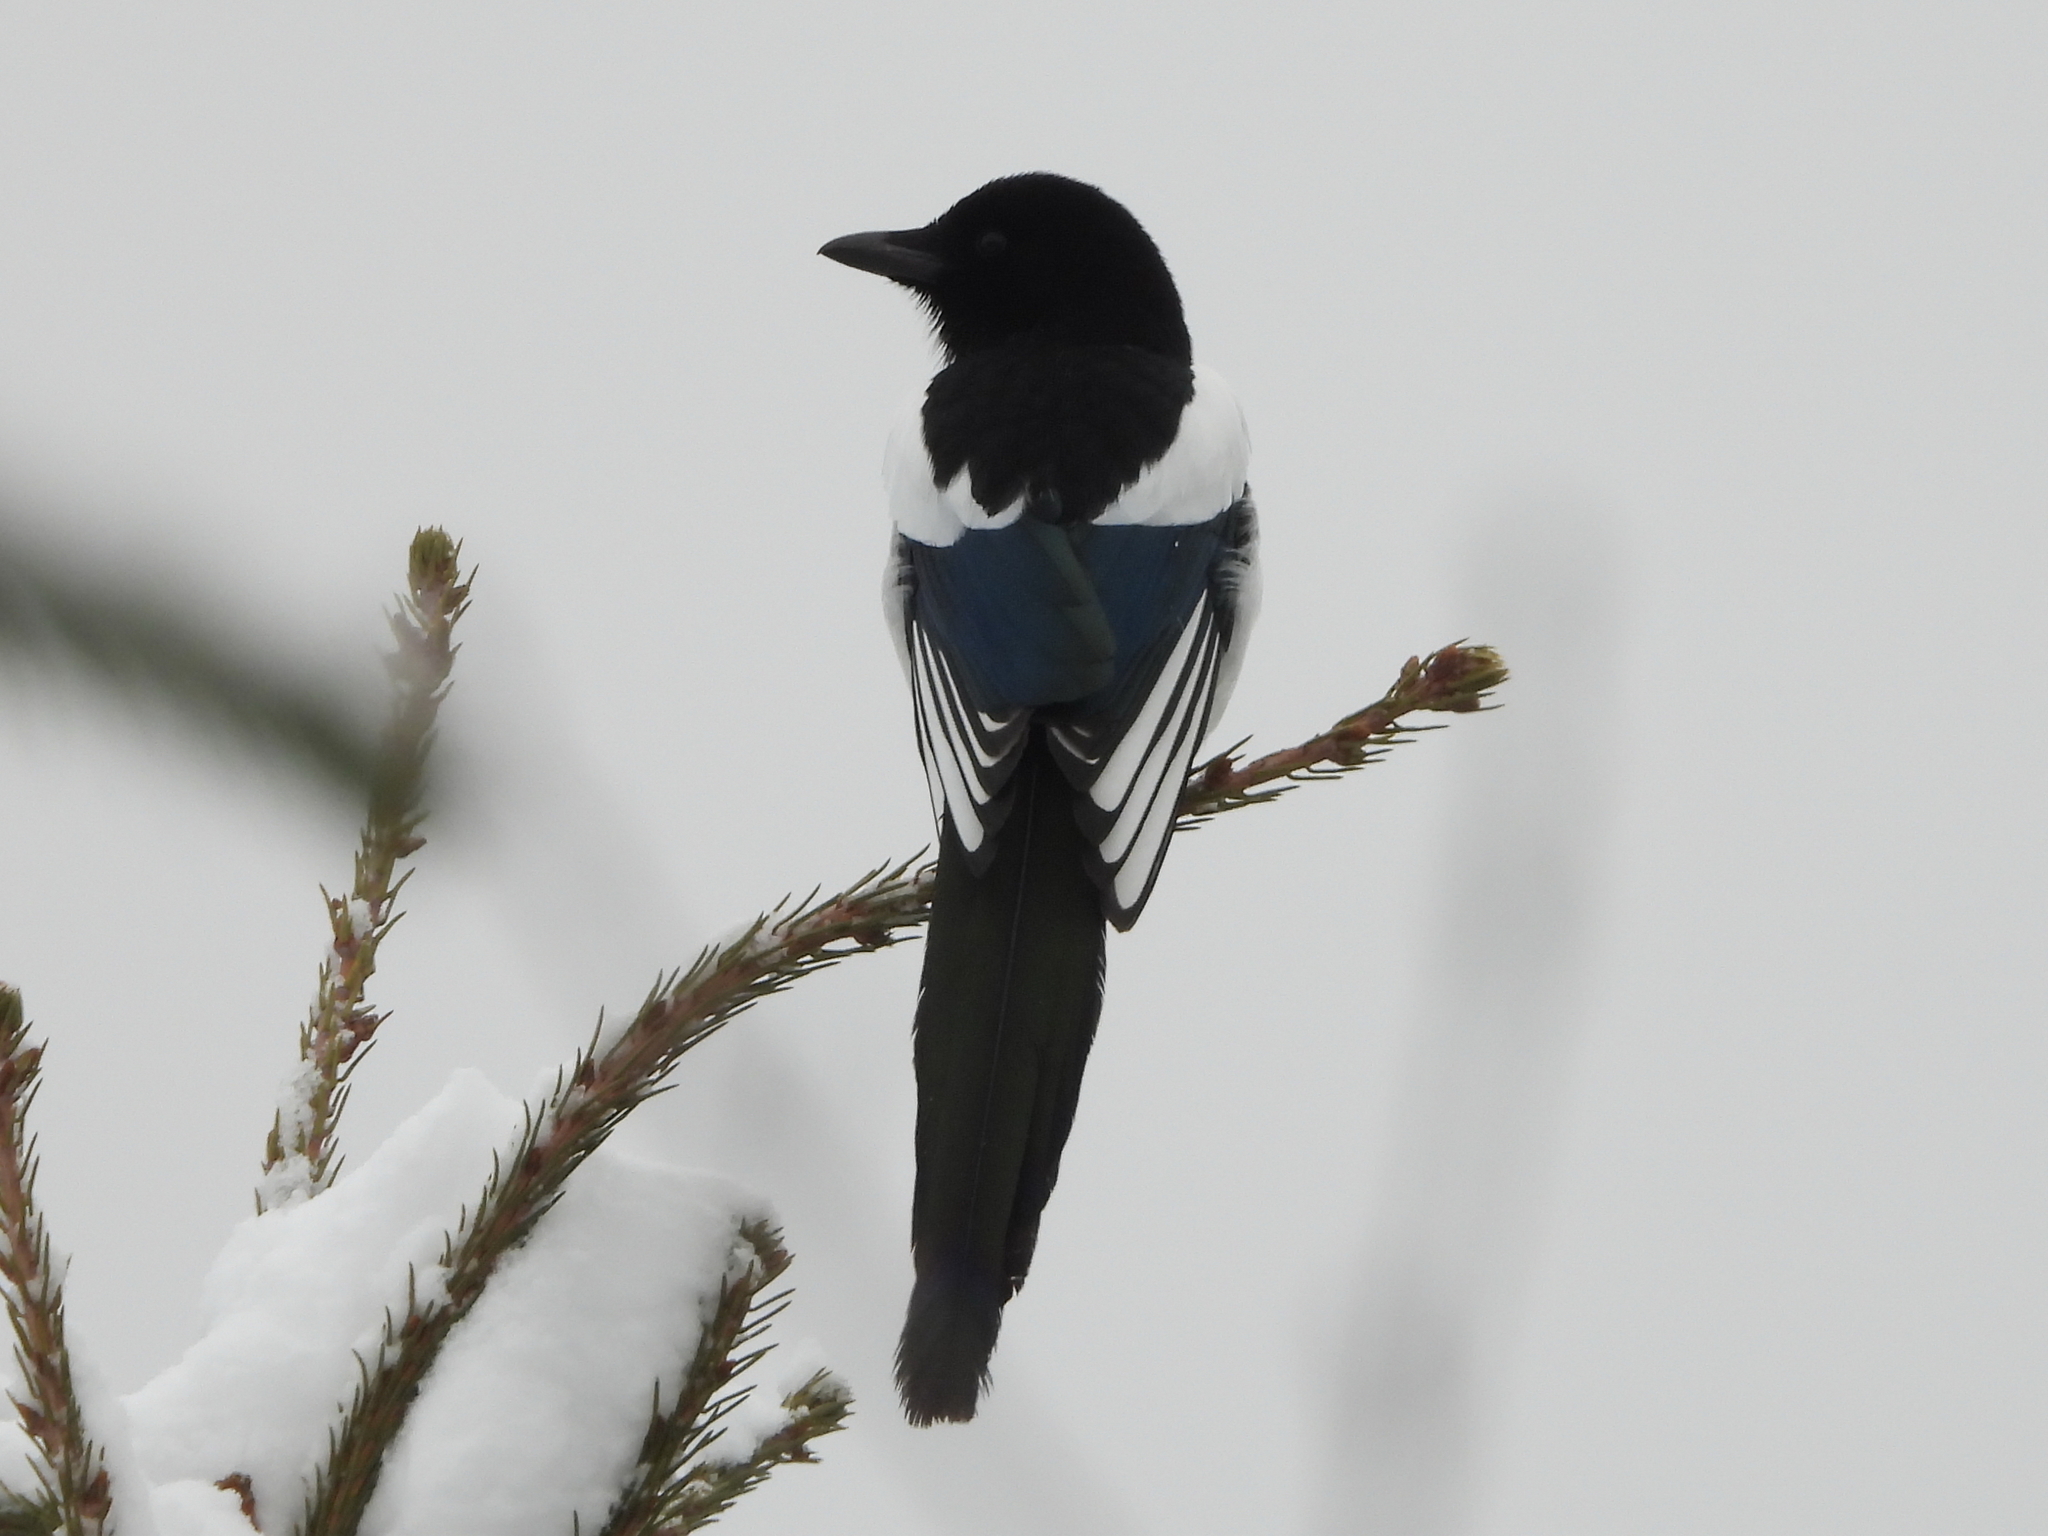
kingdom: Animalia
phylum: Chordata
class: Aves
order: Passeriformes
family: Corvidae
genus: Pica
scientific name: Pica pica
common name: Eurasian magpie
